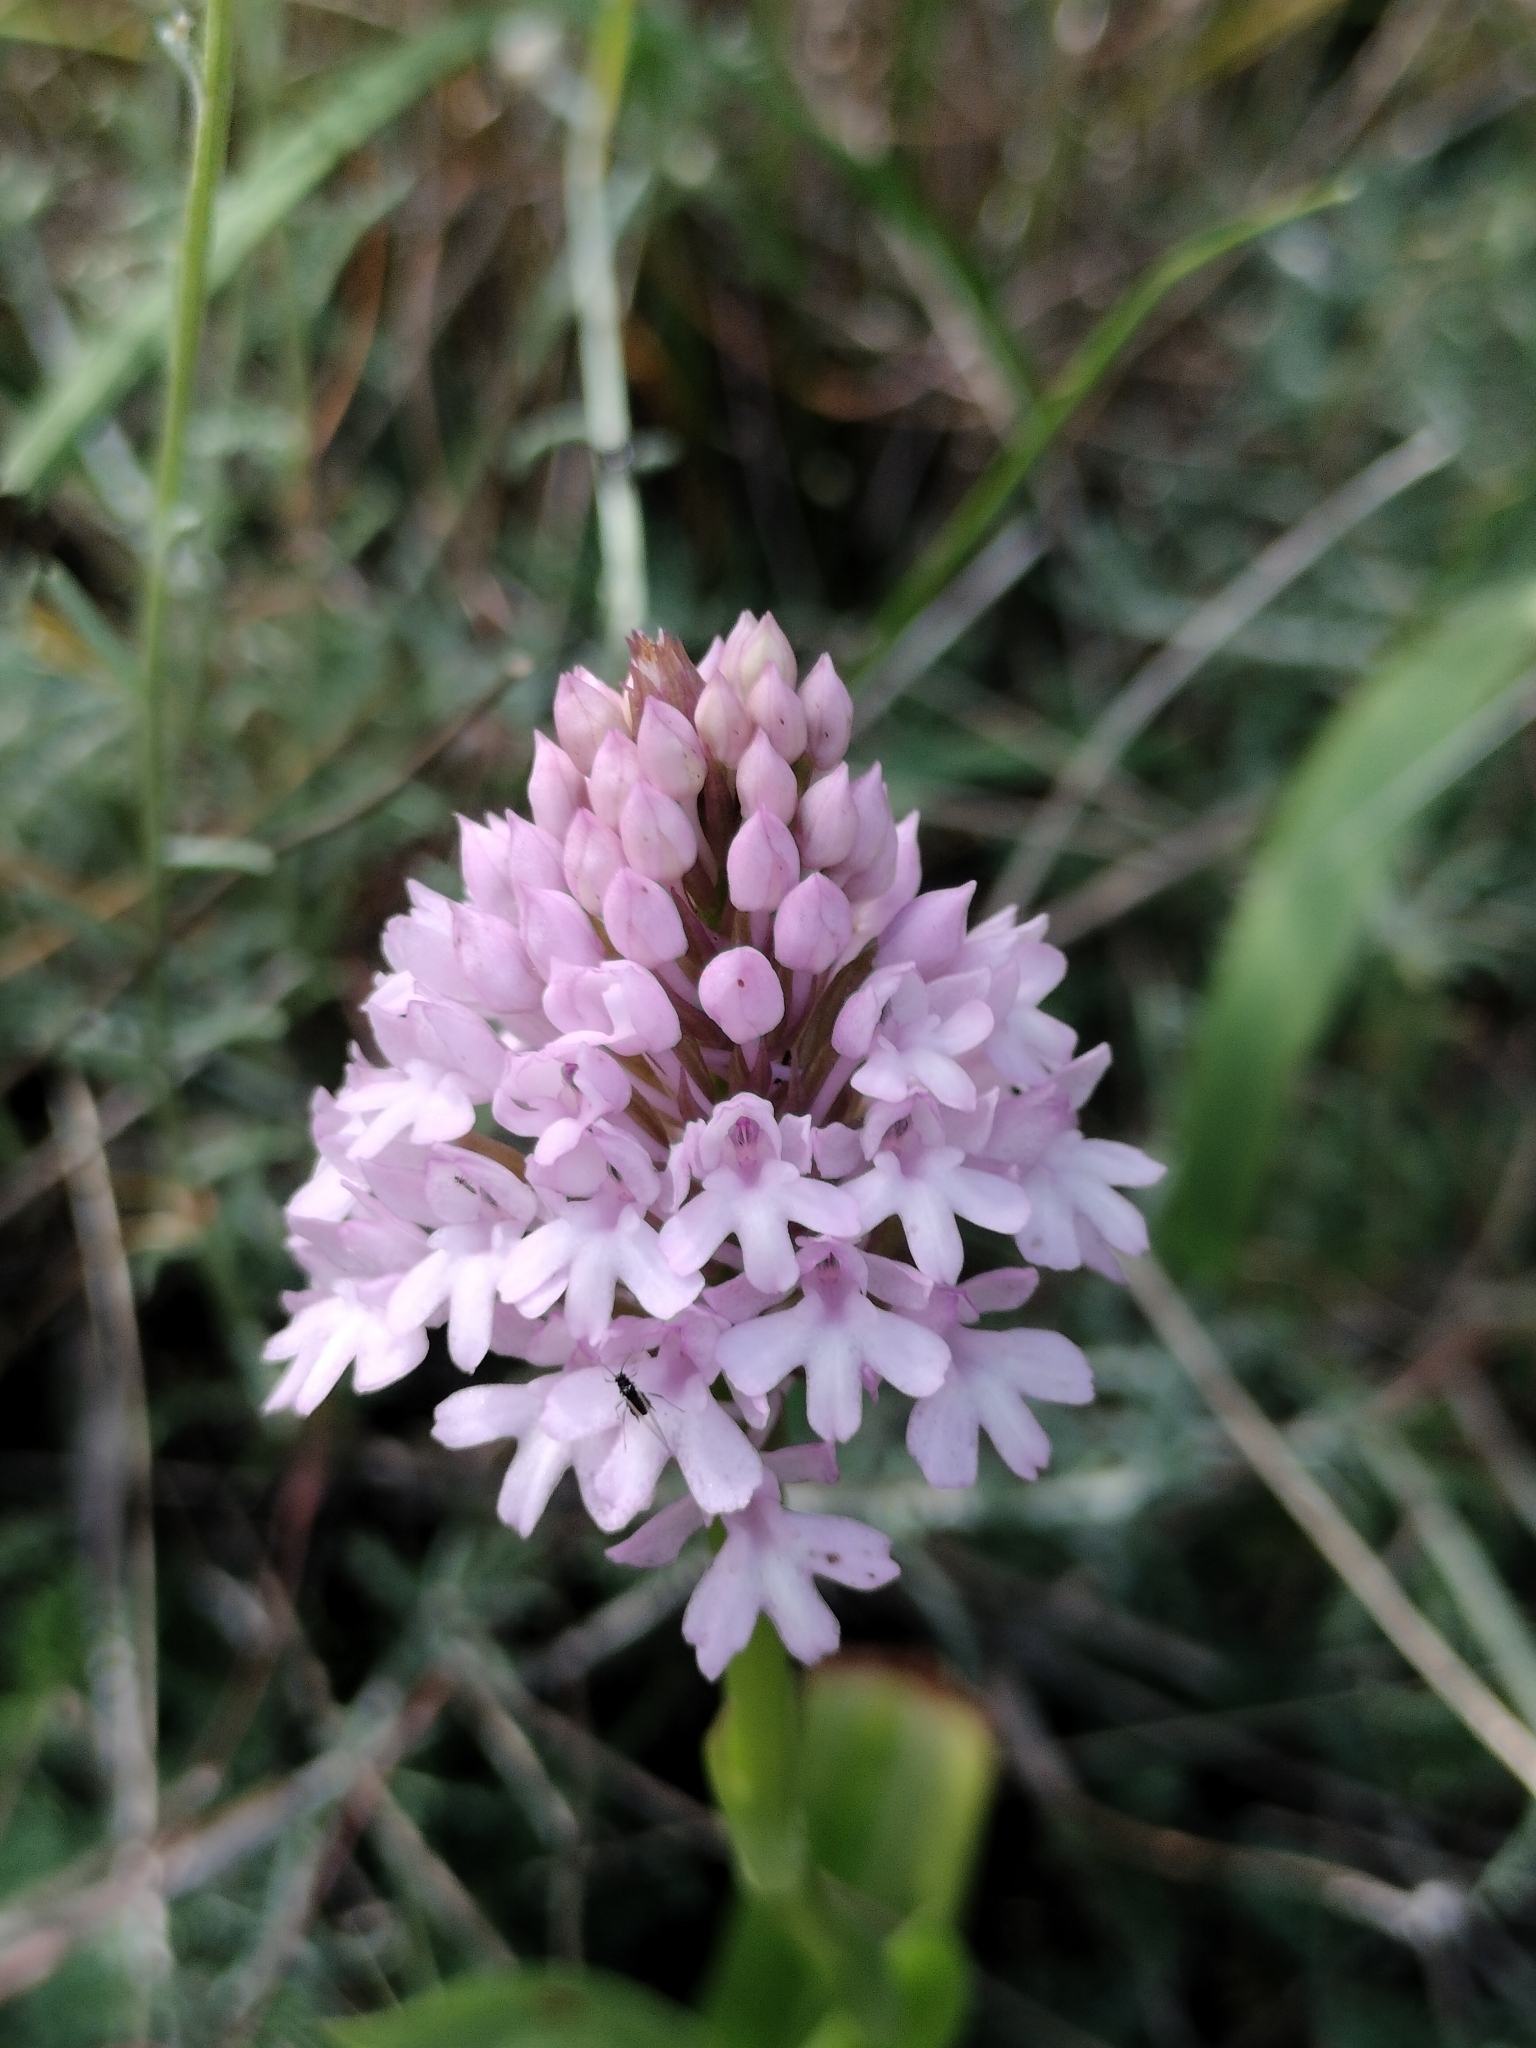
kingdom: Plantae
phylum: Tracheophyta
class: Liliopsida
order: Asparagales
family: Orchidaceae
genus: Anacamptis
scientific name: Anacamptis pyramidalis
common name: Pyramidal orchid
